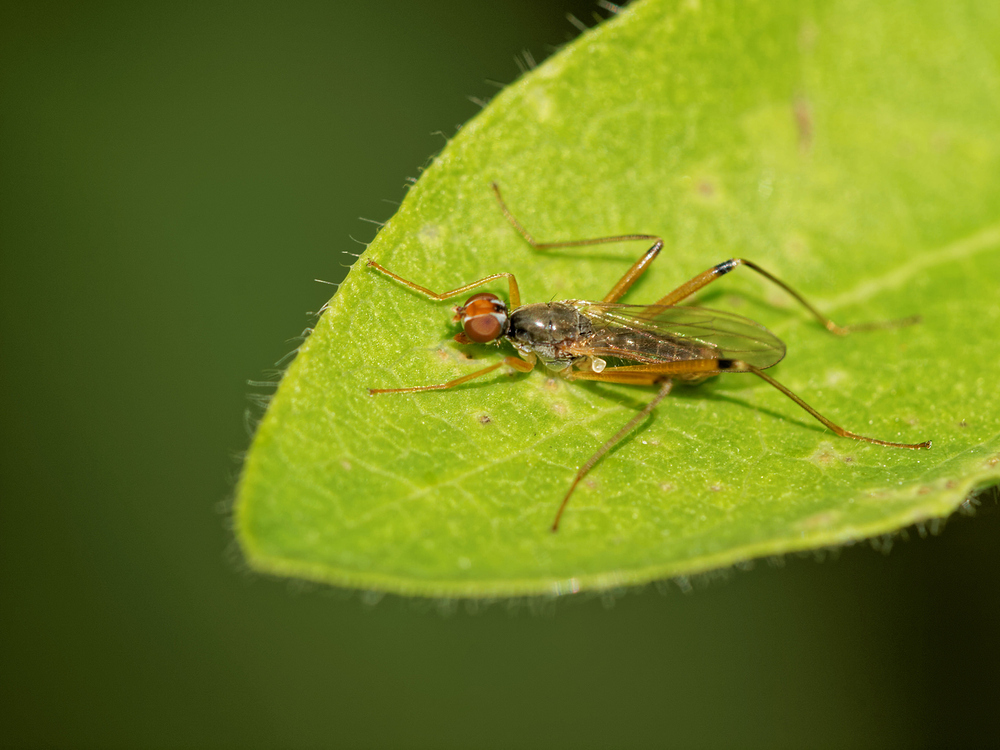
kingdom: Animalia
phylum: Arthropoda
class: Insecta
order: Diptera
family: Micropezidae
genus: Compsobata
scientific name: Compsobata cibaria
